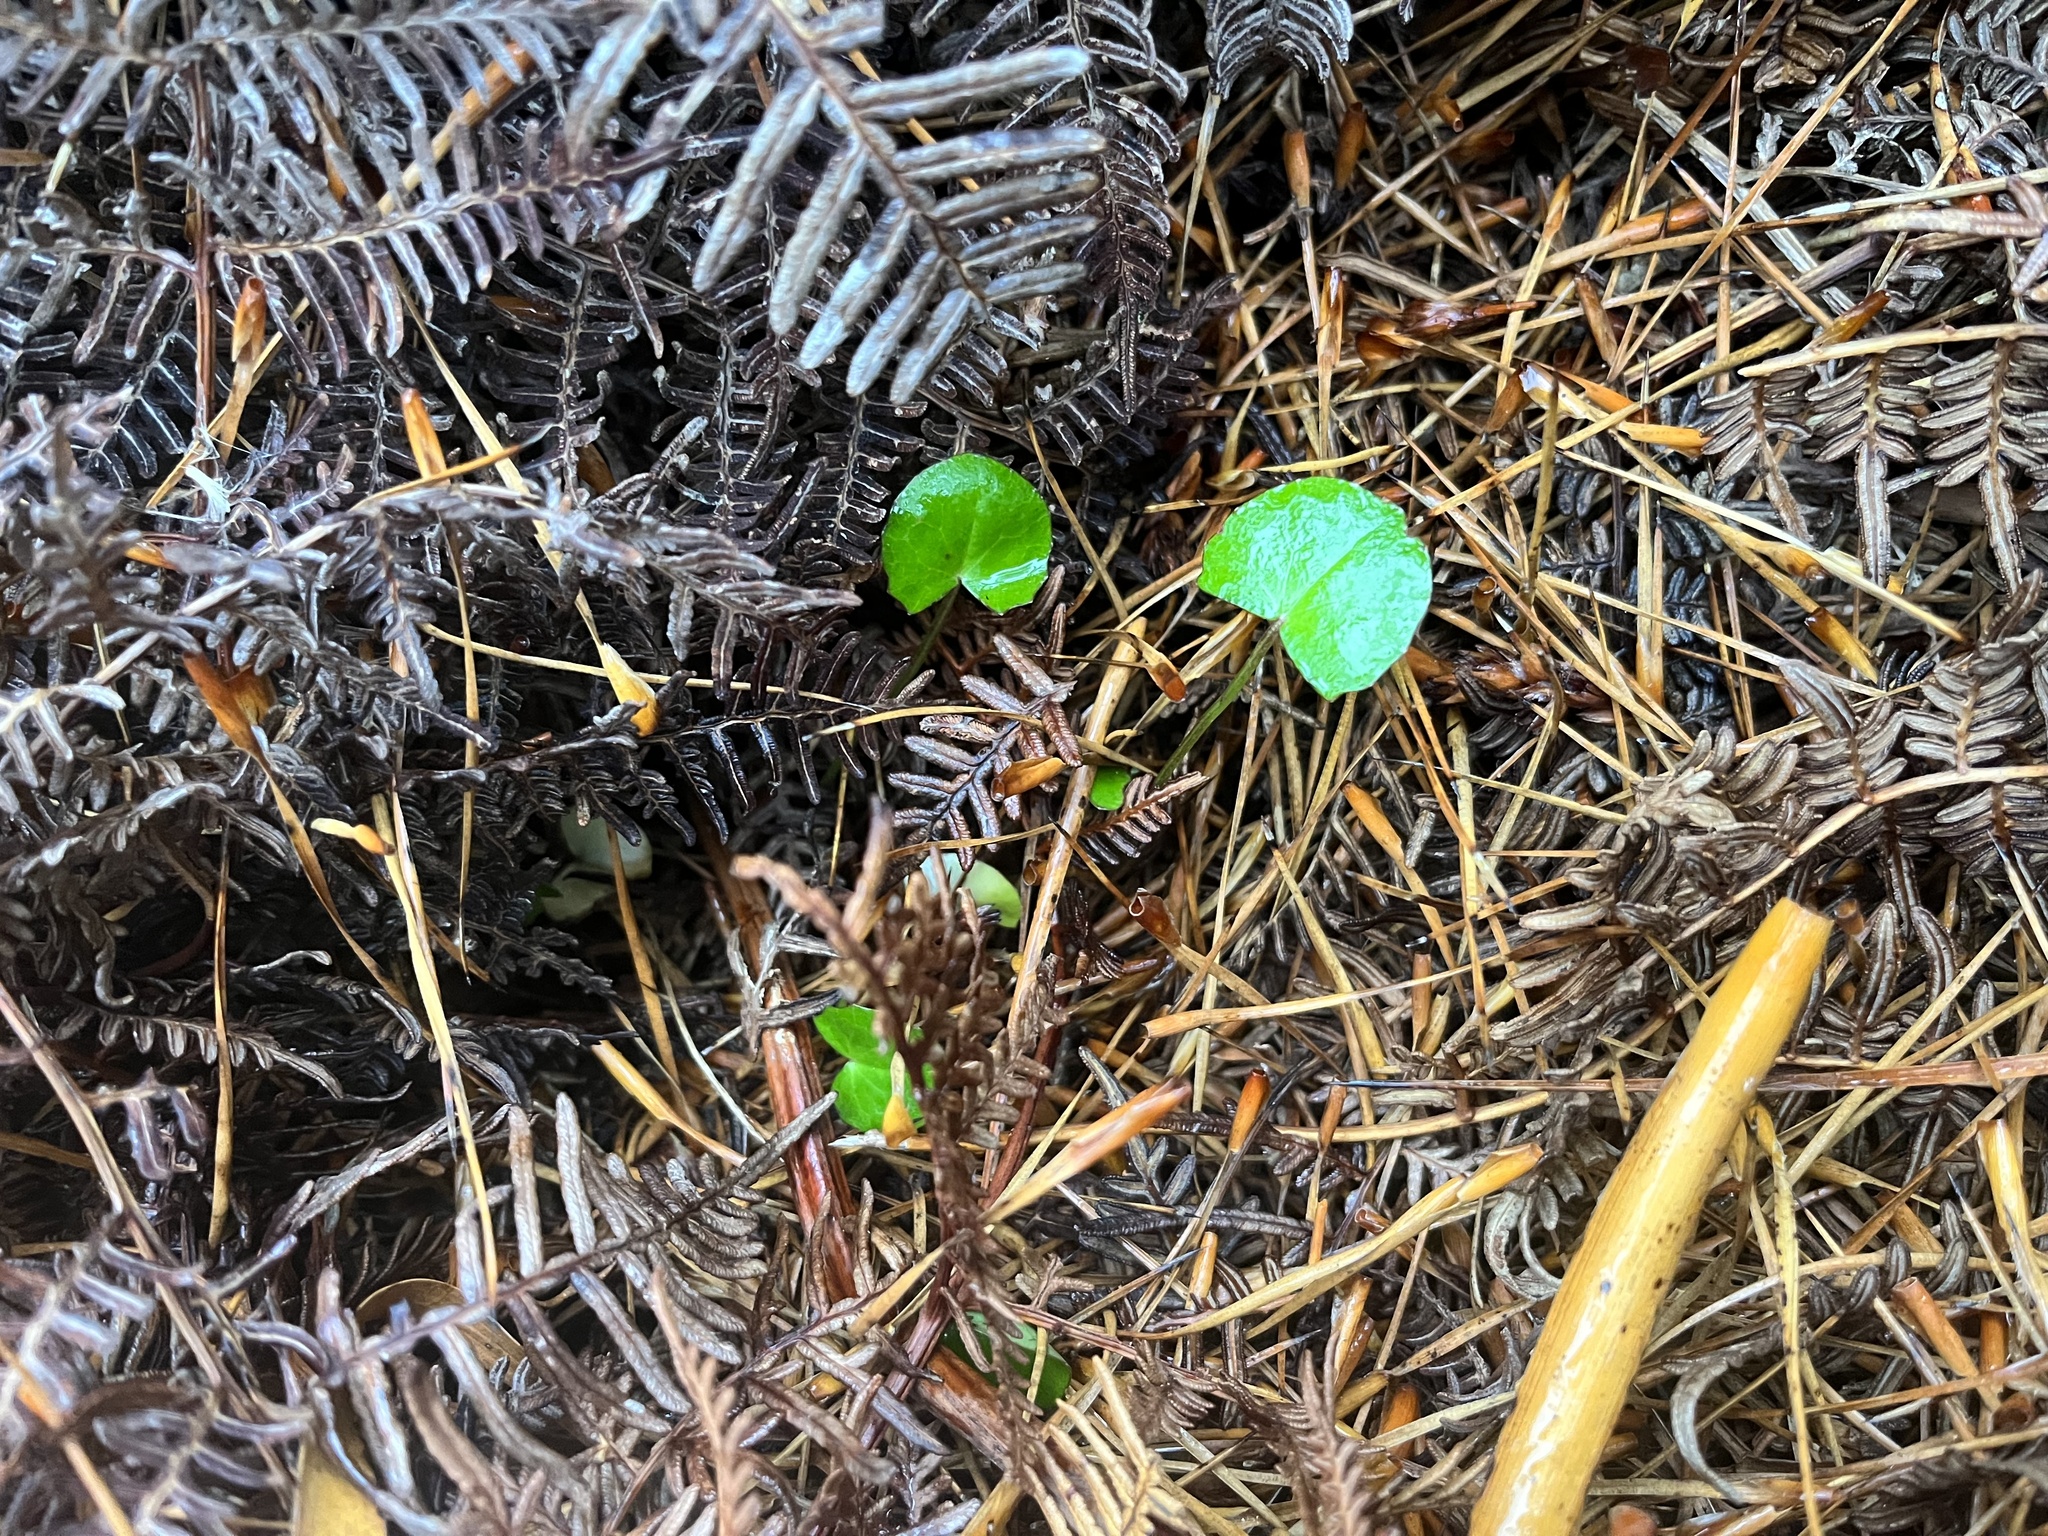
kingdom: Plantae
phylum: Tracheophyta
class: Magnoliopsida
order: Apiales
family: Apiaceae
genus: Centella
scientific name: Centella uniflora
